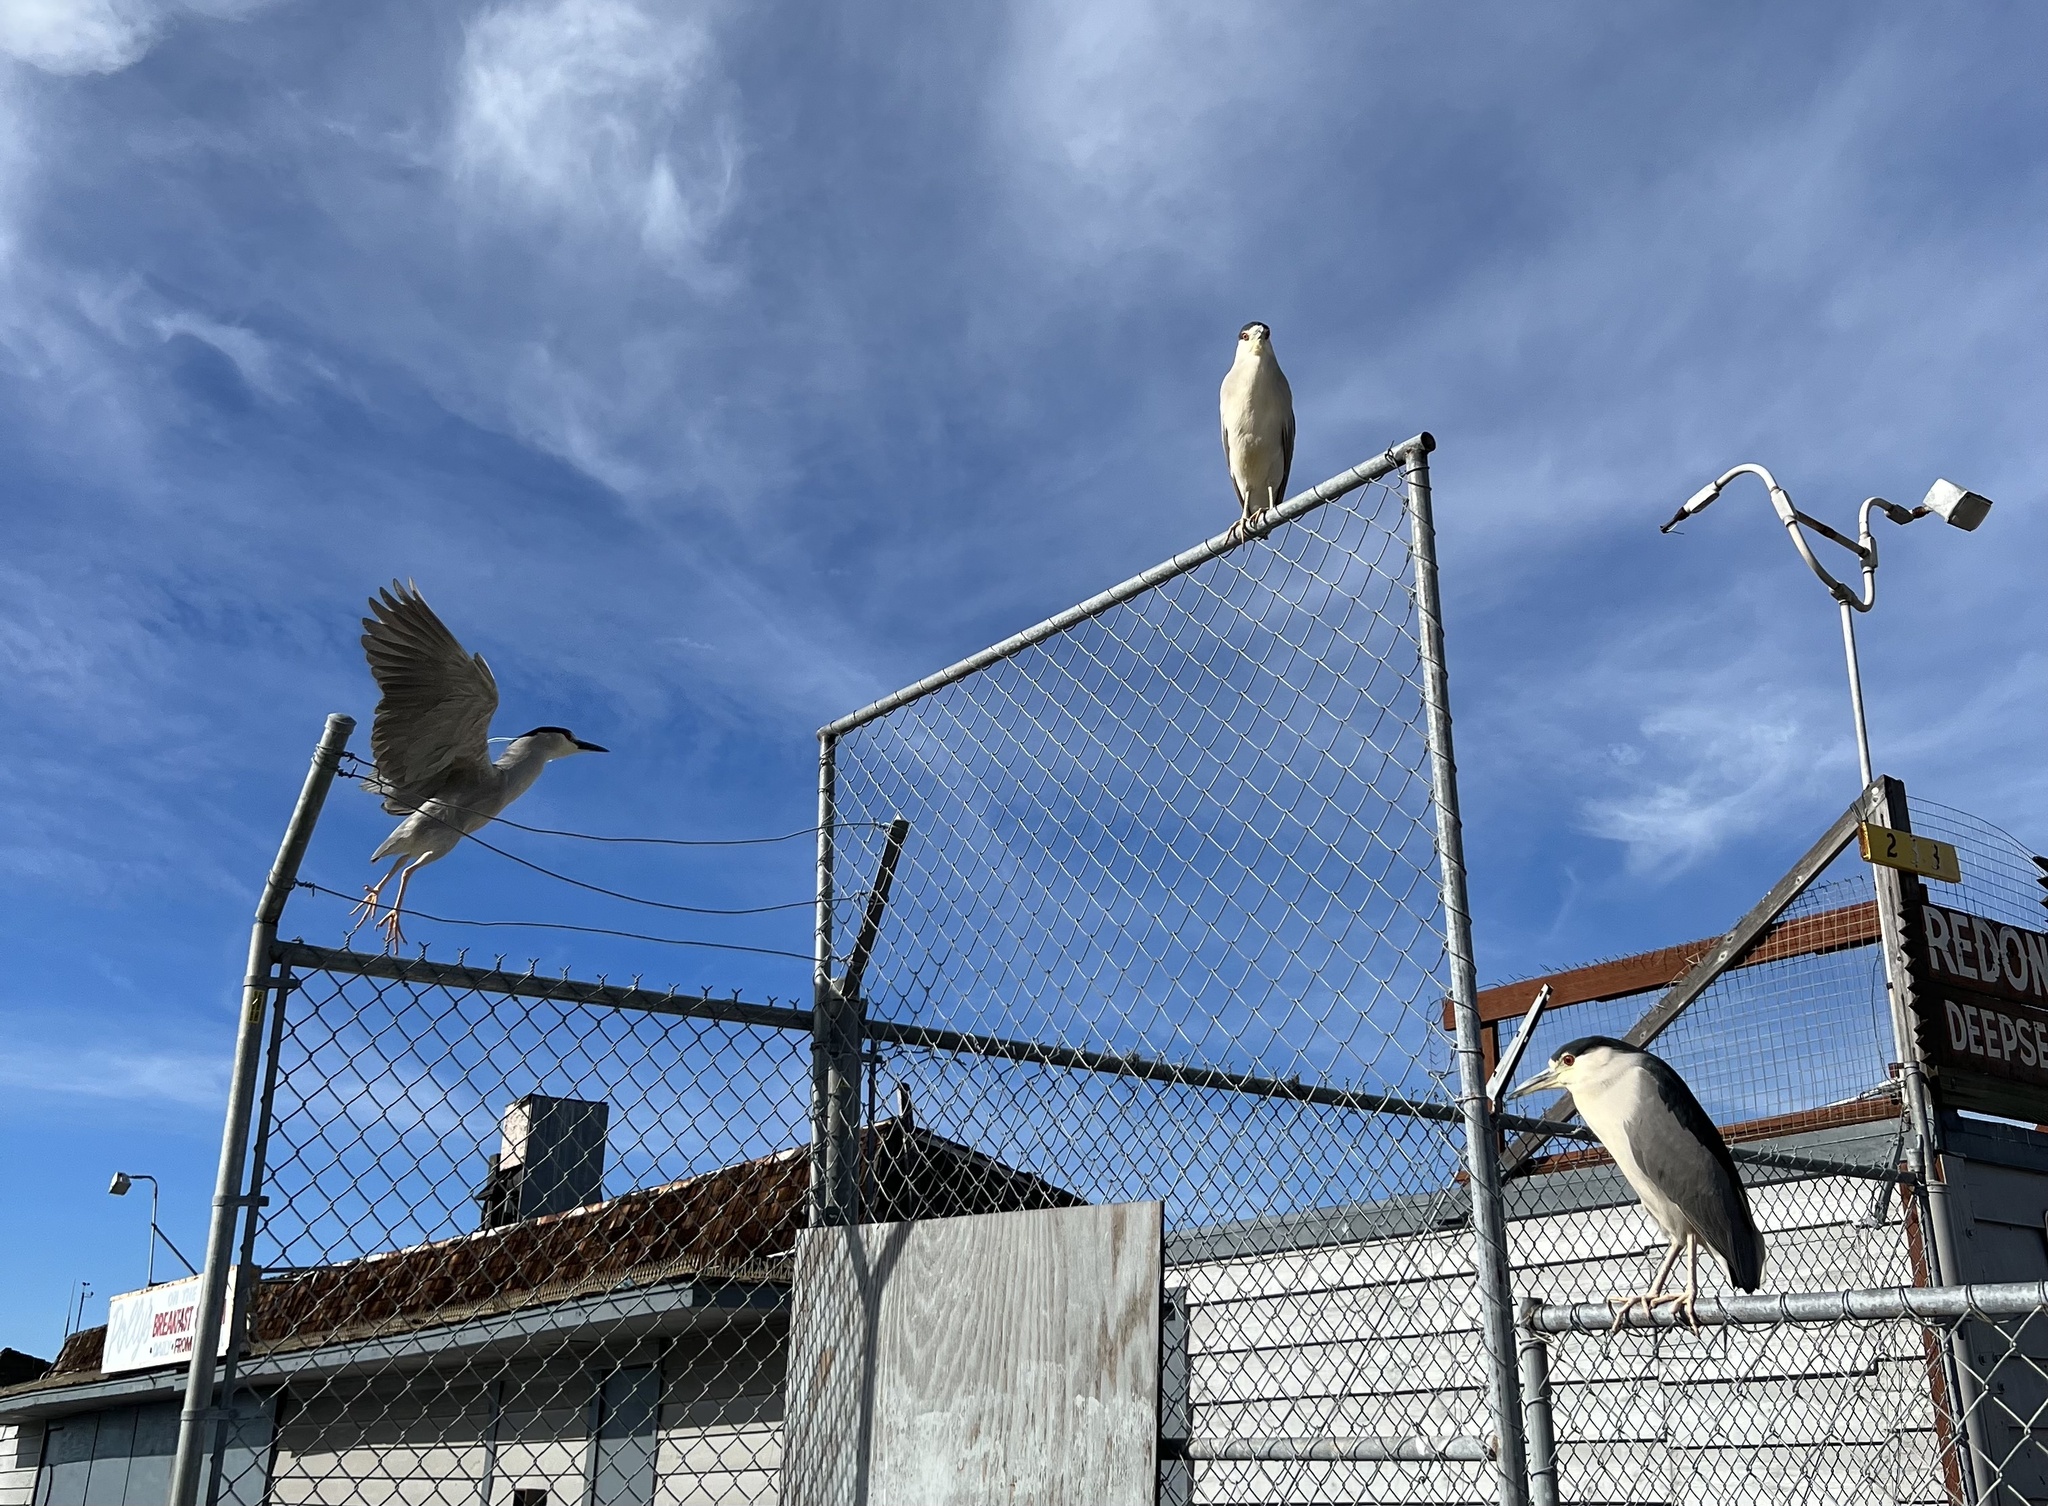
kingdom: Animalia
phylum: Chordata
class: Aves
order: Pelecaniformes
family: Ardeidae
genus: Nycticorax
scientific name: Nycticorax nycticorax
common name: Black-crowned night heron
